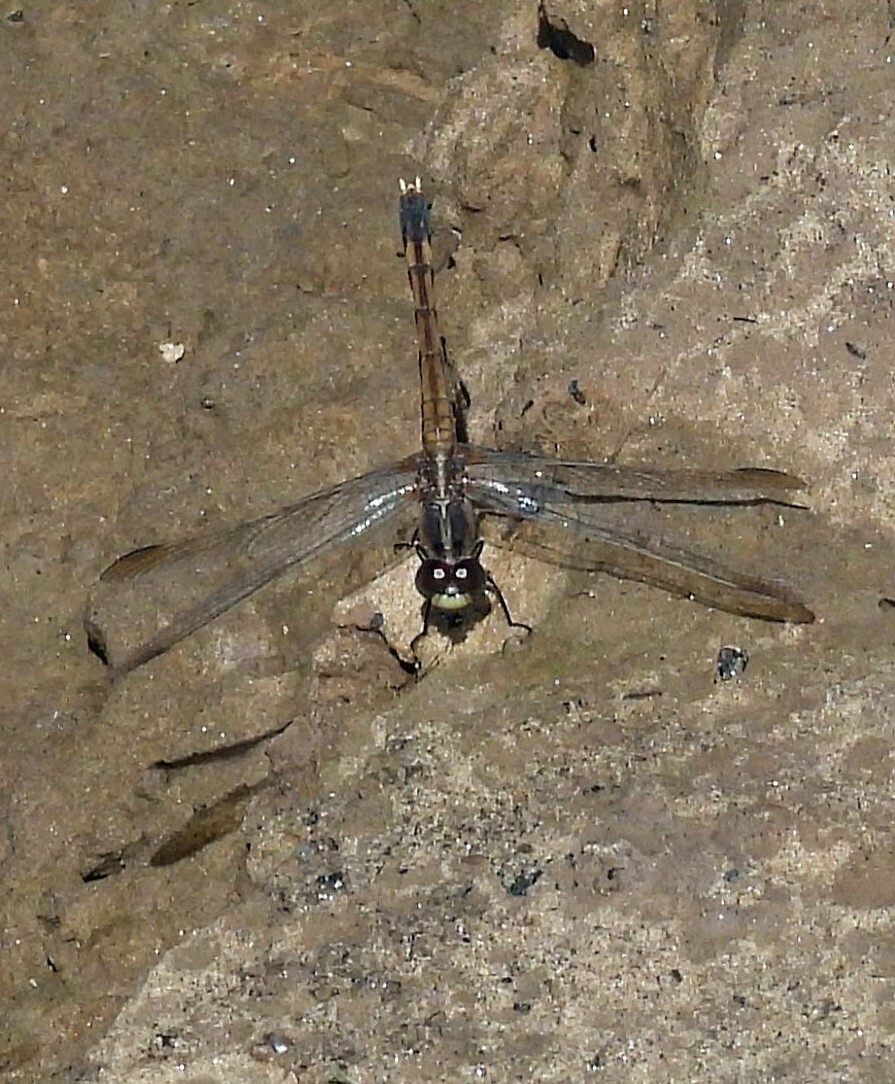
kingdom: Animalia
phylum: Arthropoda
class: Insecta
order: Odonata
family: Libellulidae
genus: Erythrodiplax
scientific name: Erythrodiplax nigricans
